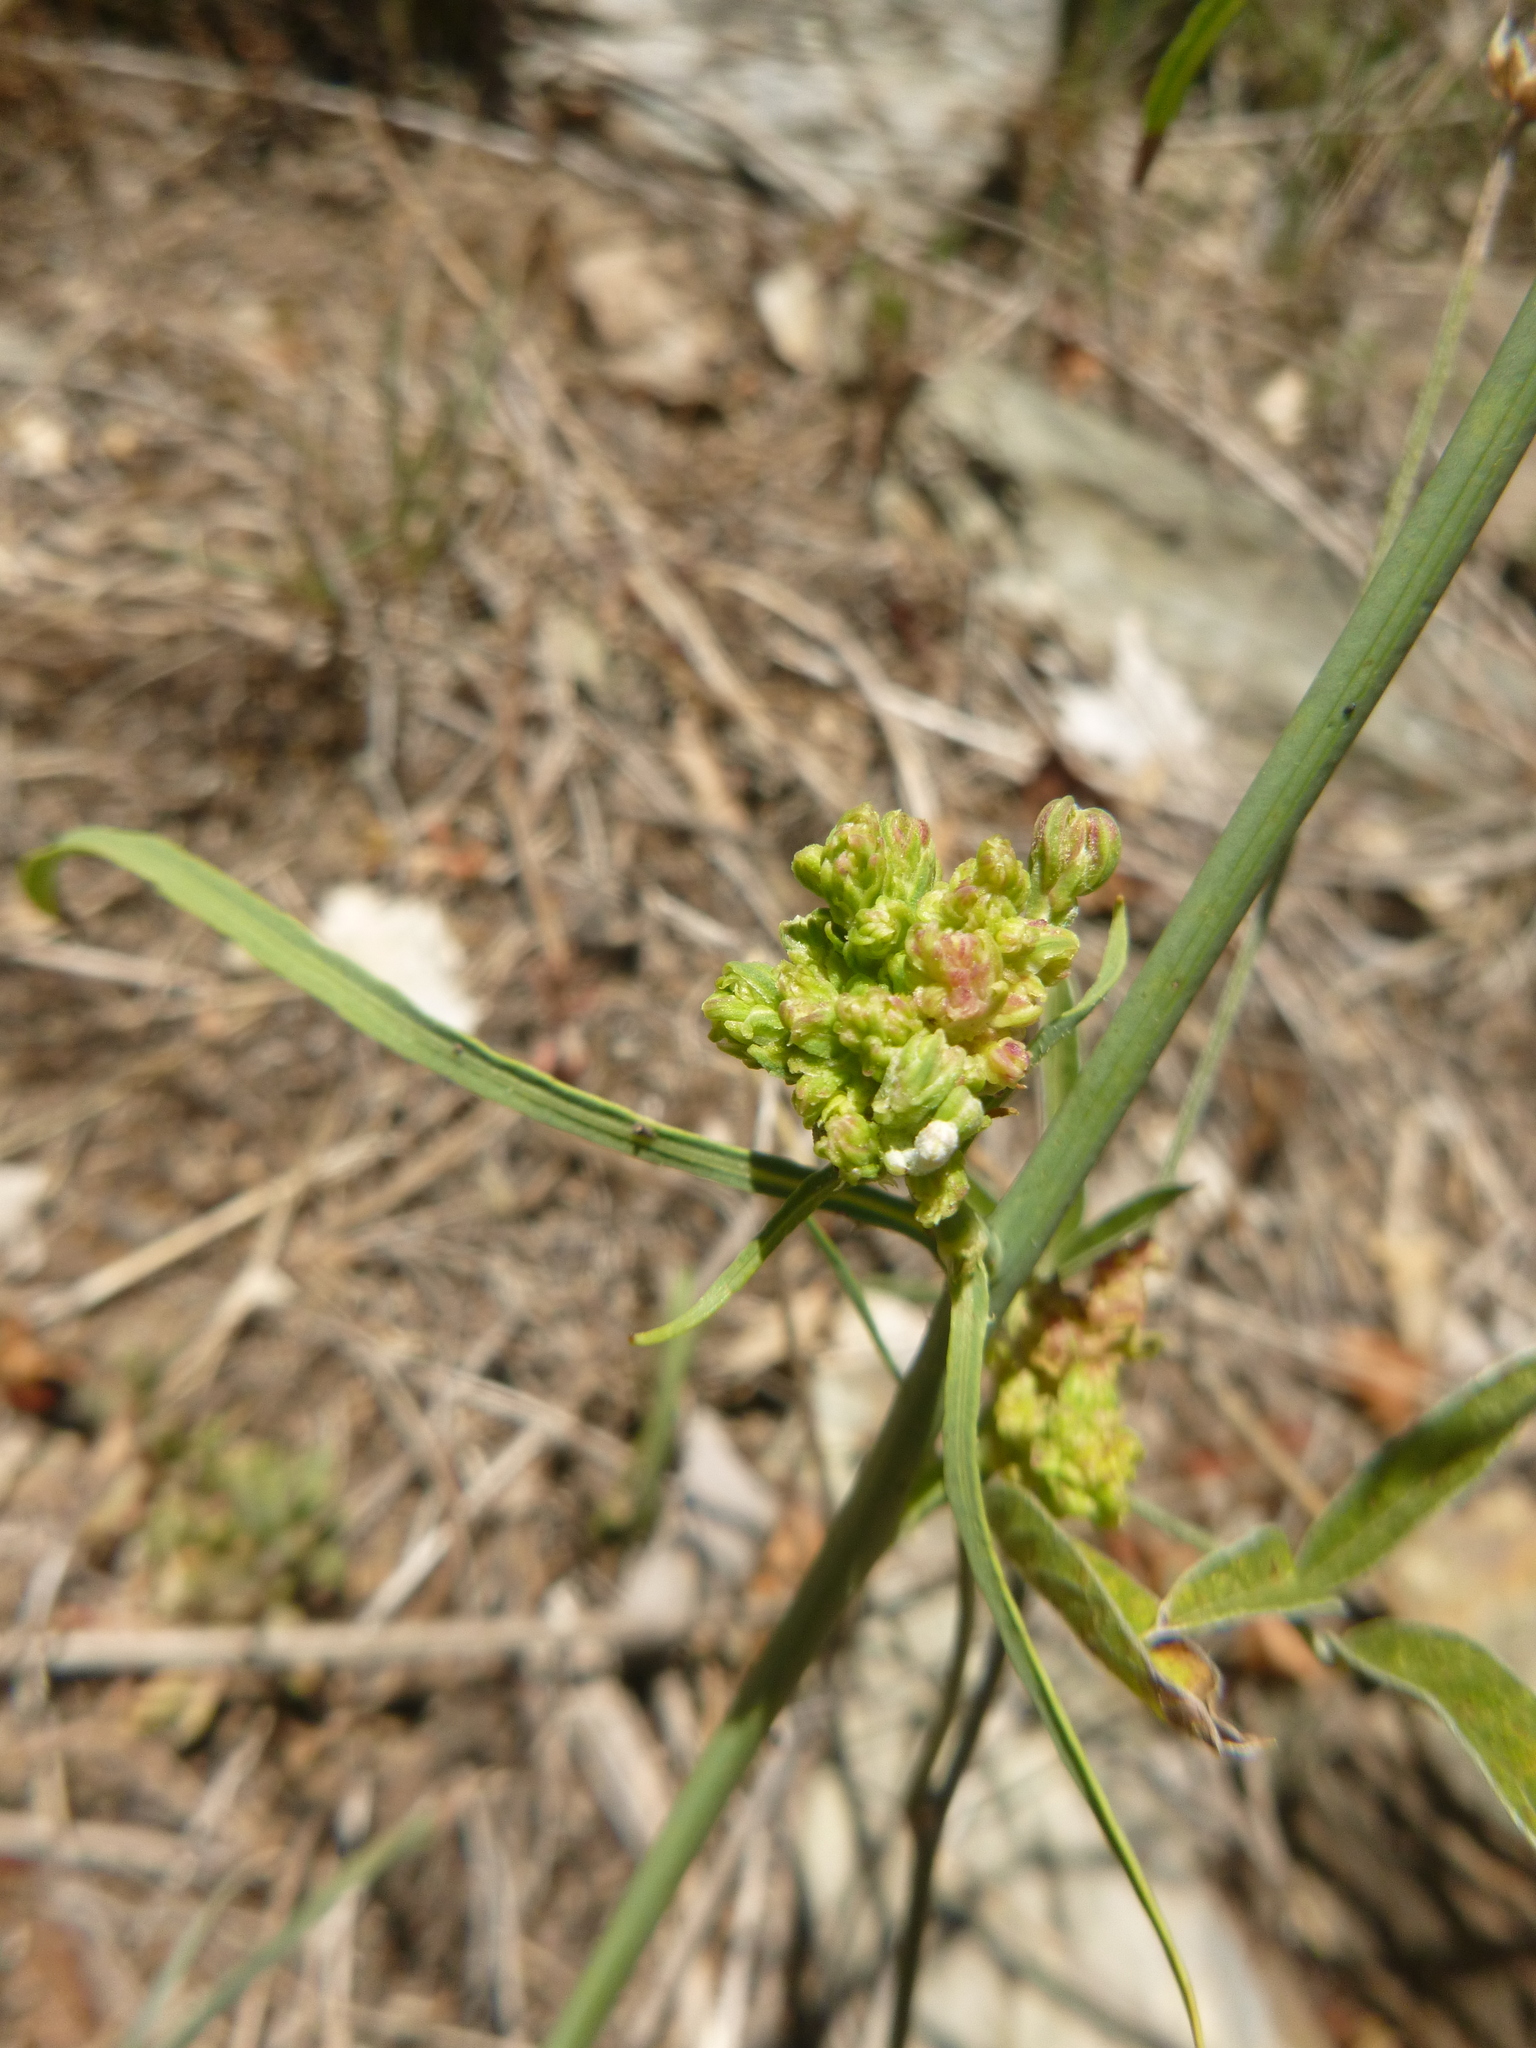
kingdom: Animalia
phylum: Arthropoda
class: Arachnida
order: Trombidiformes
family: Eriophyidae
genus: Aceria
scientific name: Aceria chondrillae
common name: Rush skeletonweed gall mite
